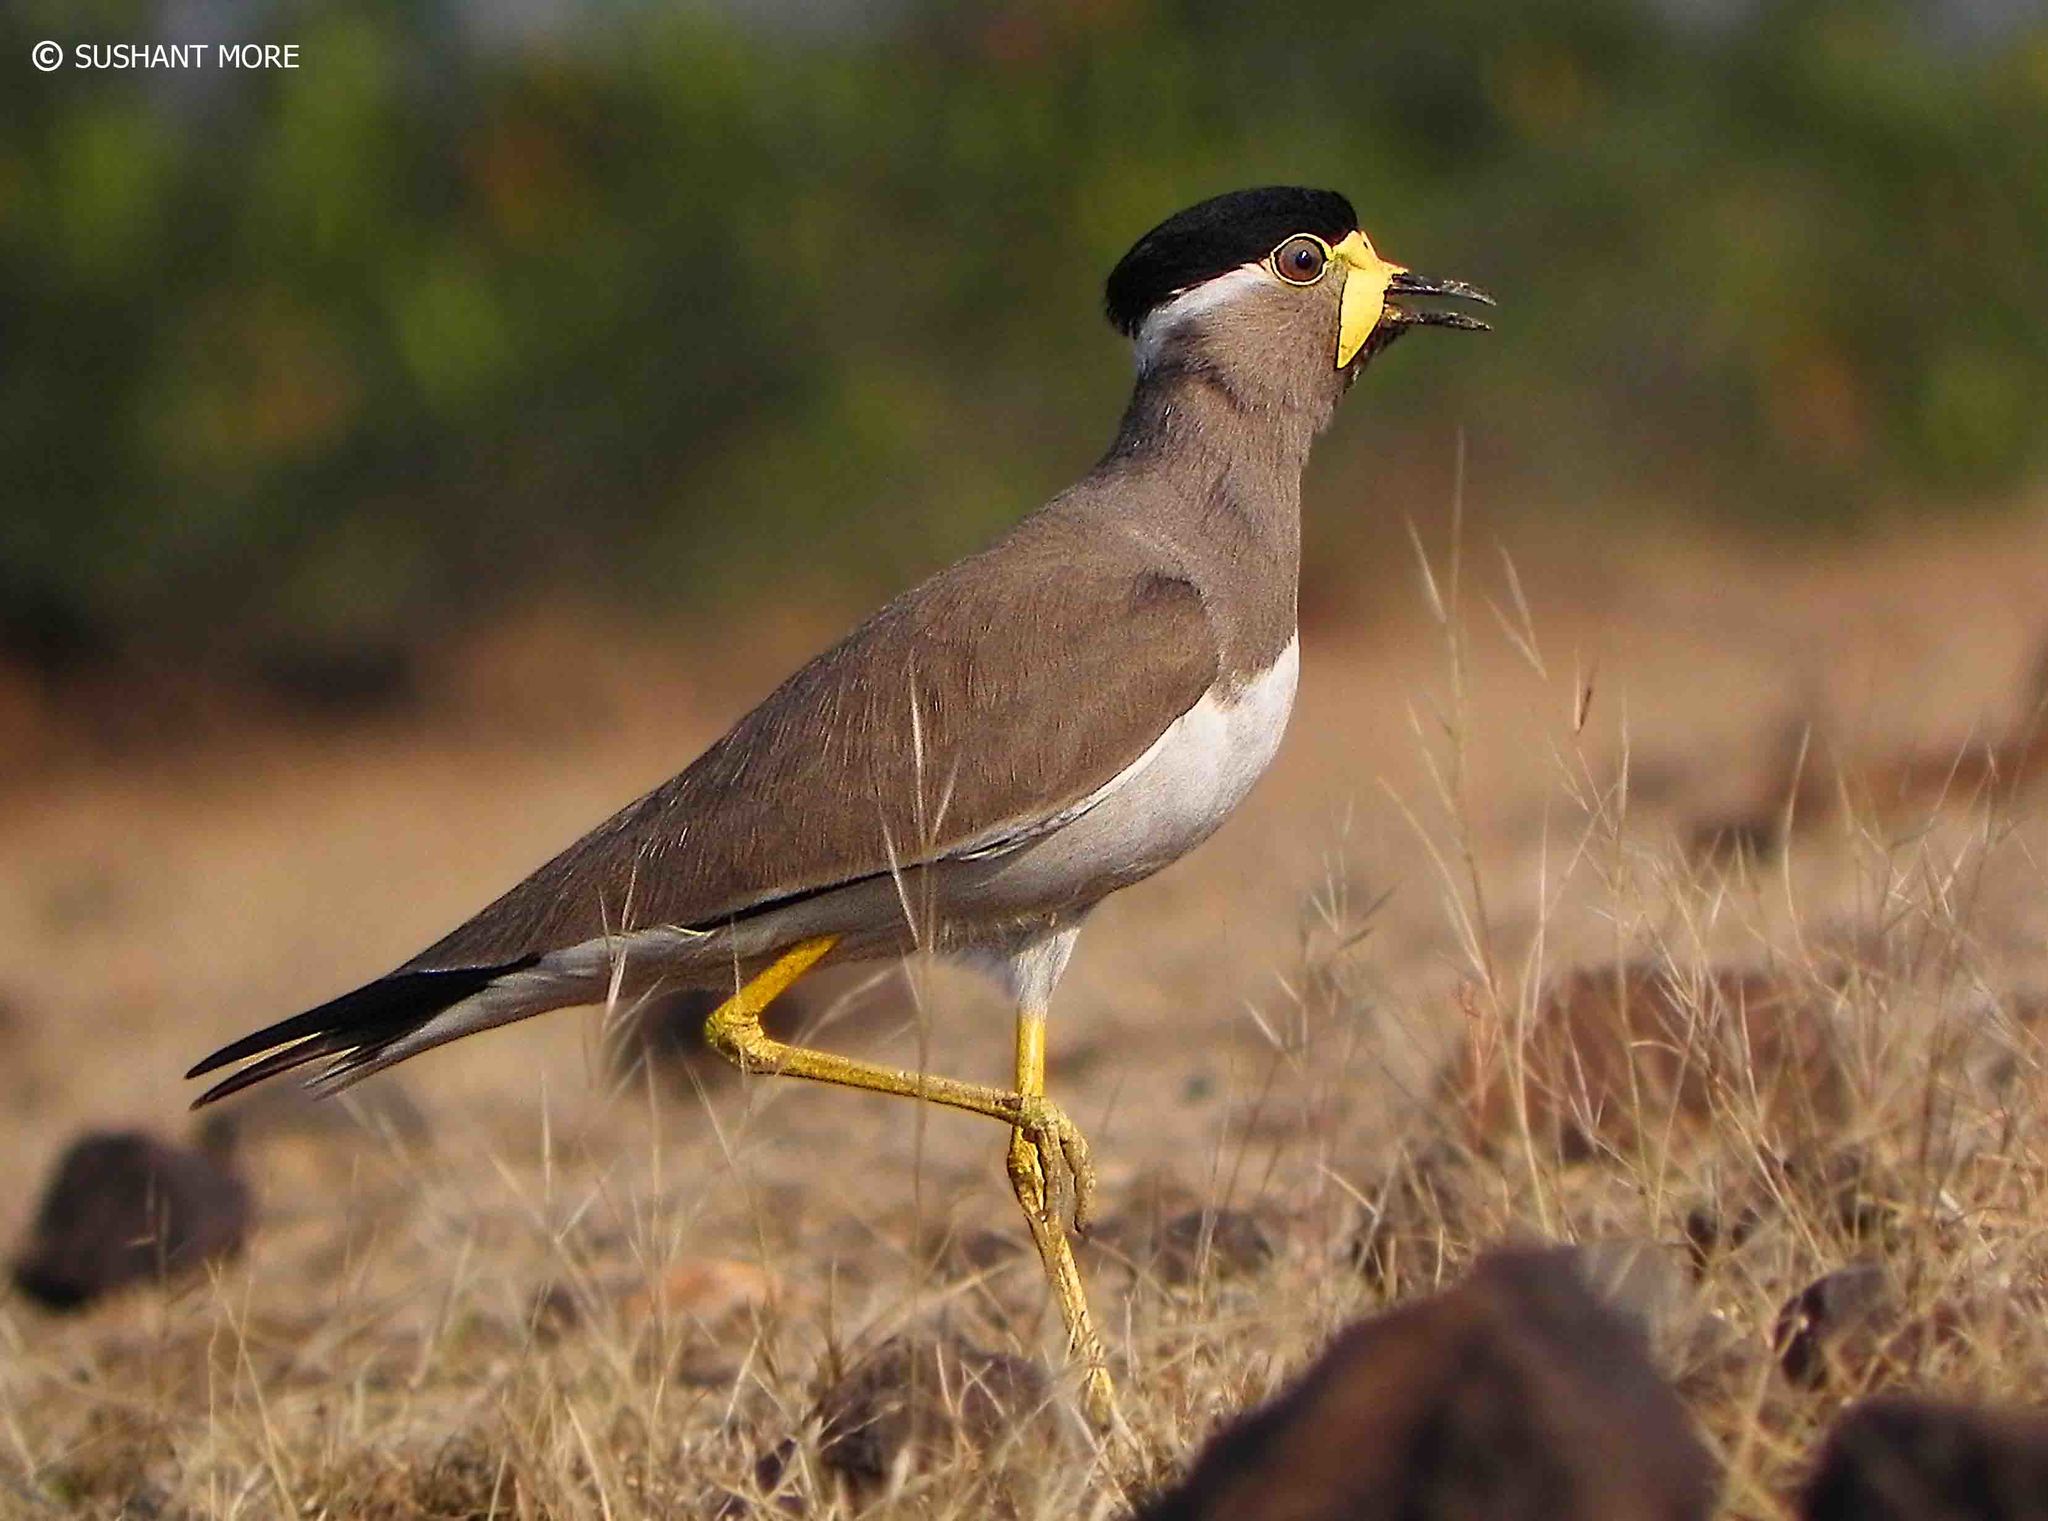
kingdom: Animalia
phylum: Chordata
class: Aves
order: Charadriiformes
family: Charadriidae
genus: Vanellus
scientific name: Vanellus malabaricus
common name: Yellow-wattled lapwing
